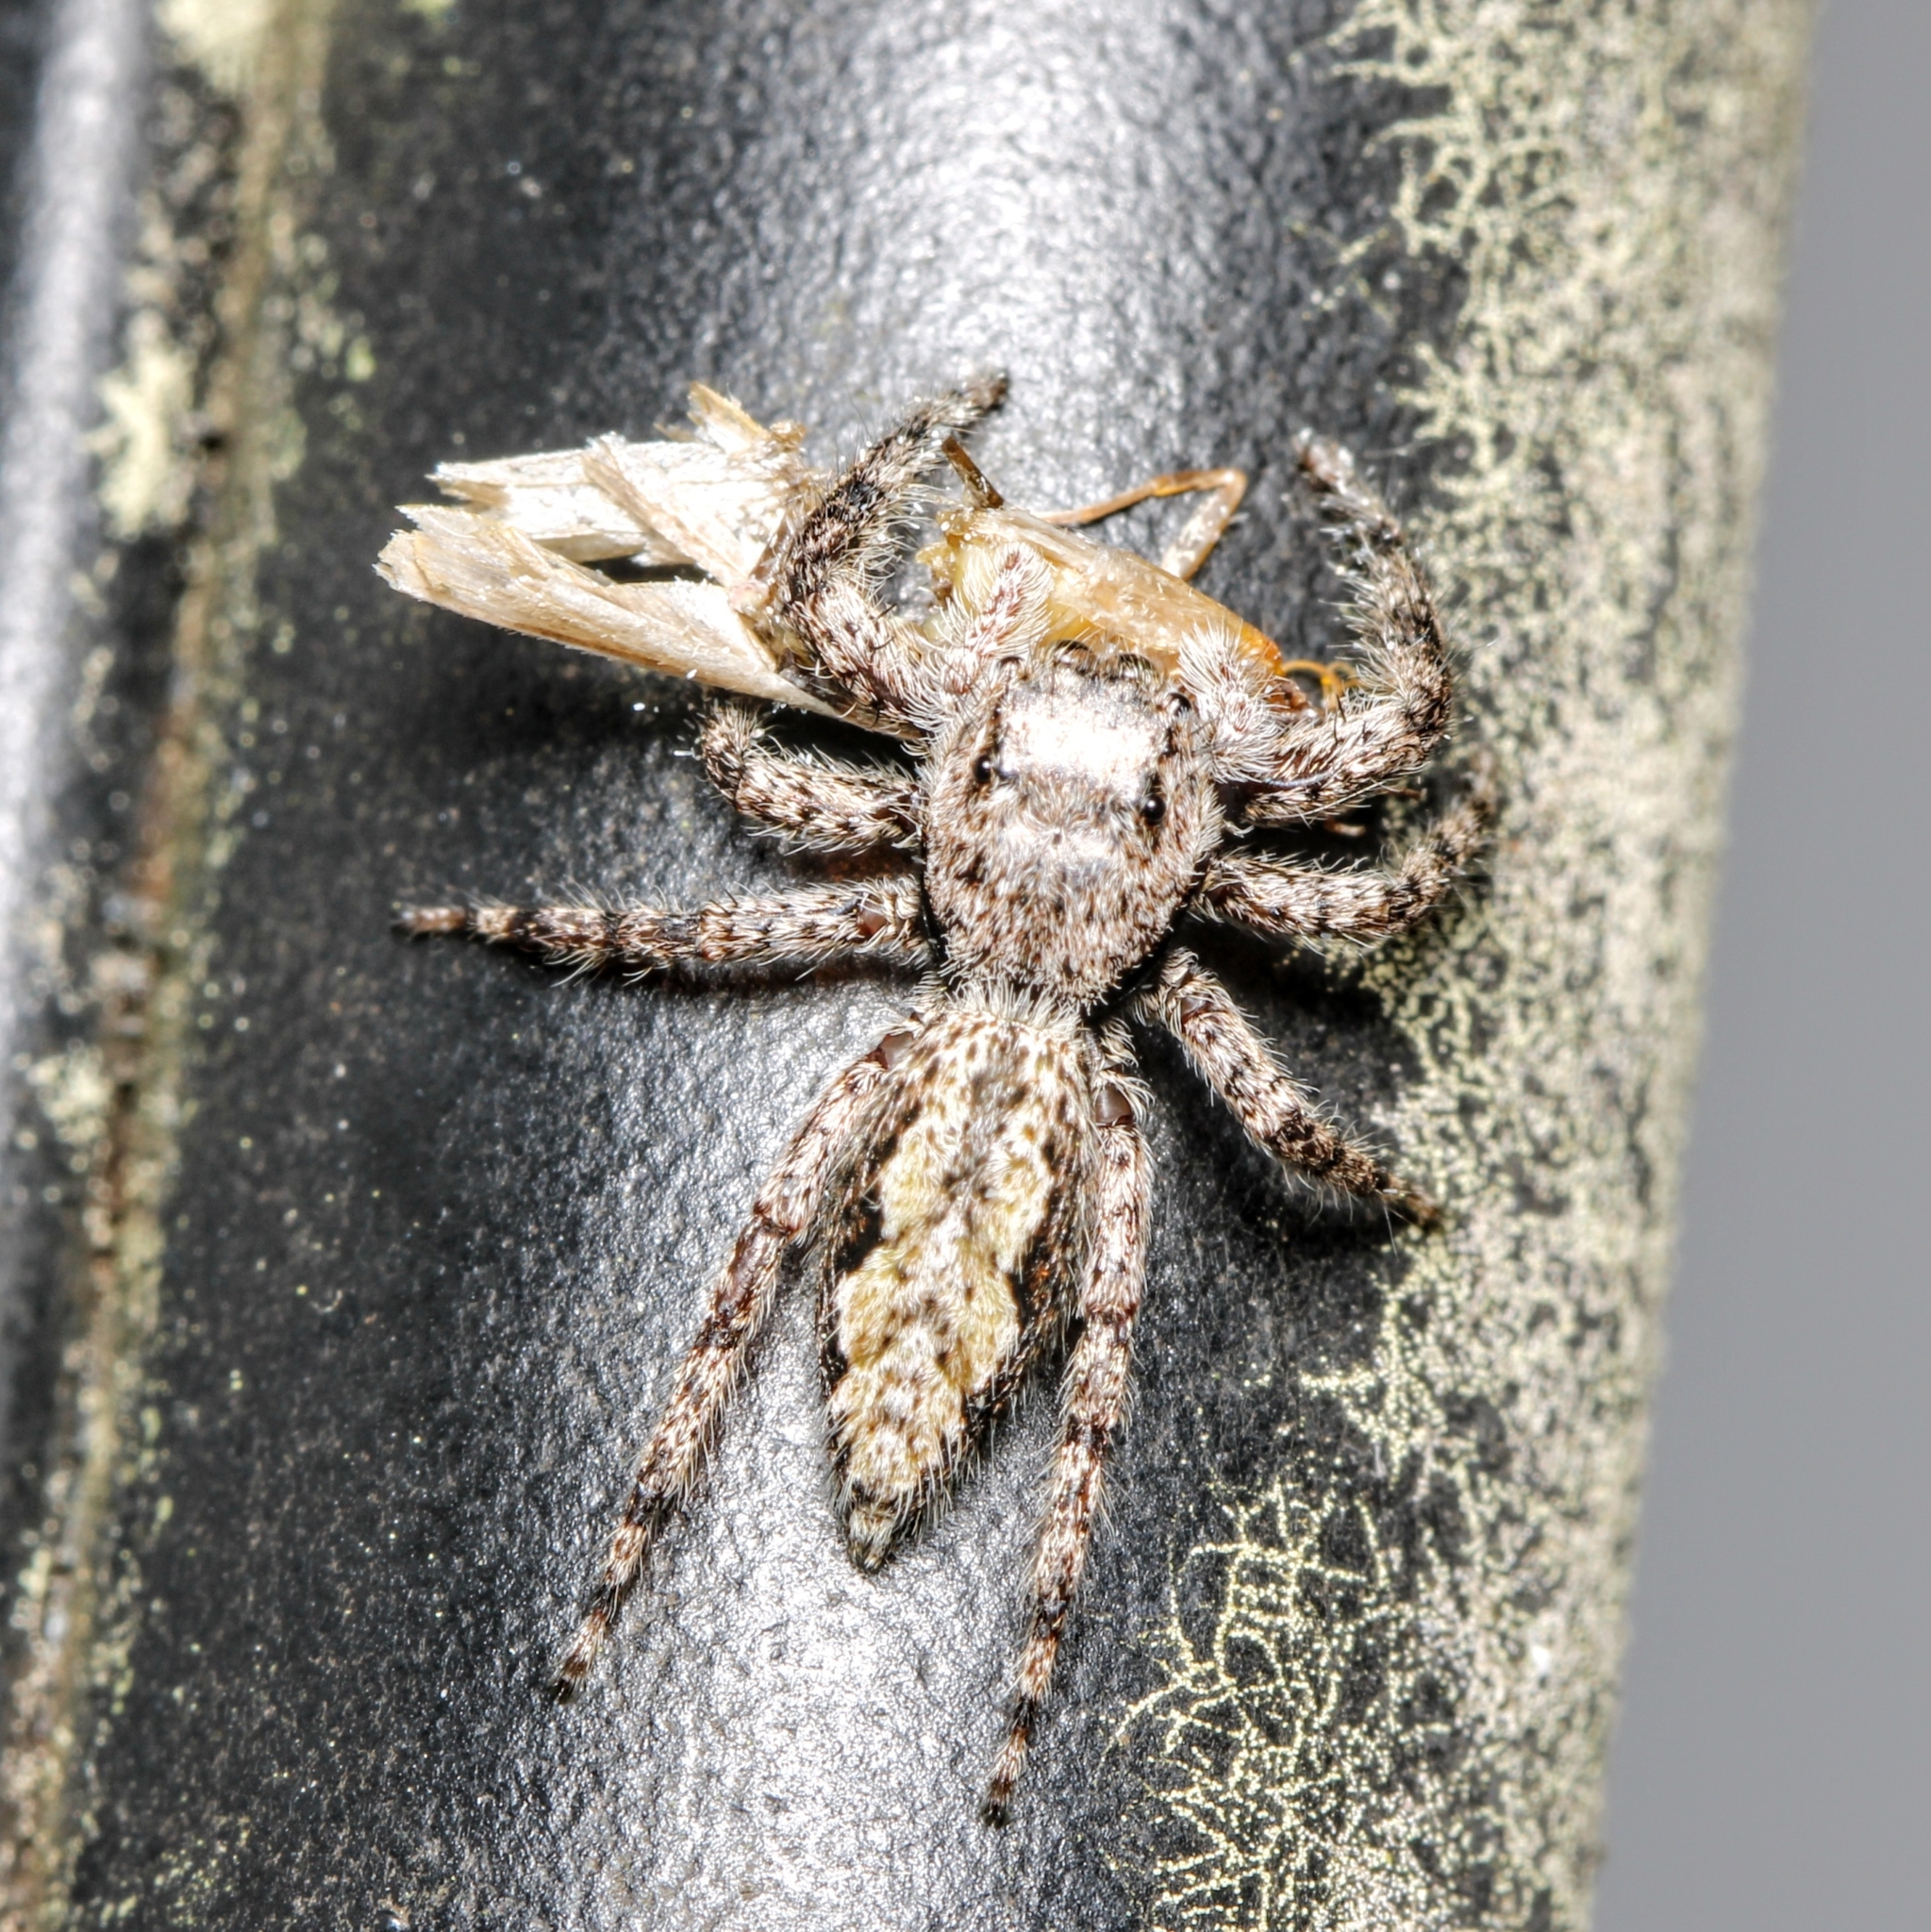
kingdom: Animalia
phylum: Arthropoda
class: Arachnida
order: Araneae
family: Salticidae
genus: Platycryptus
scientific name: Platycryptus undatus
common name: Tan jumping spider
